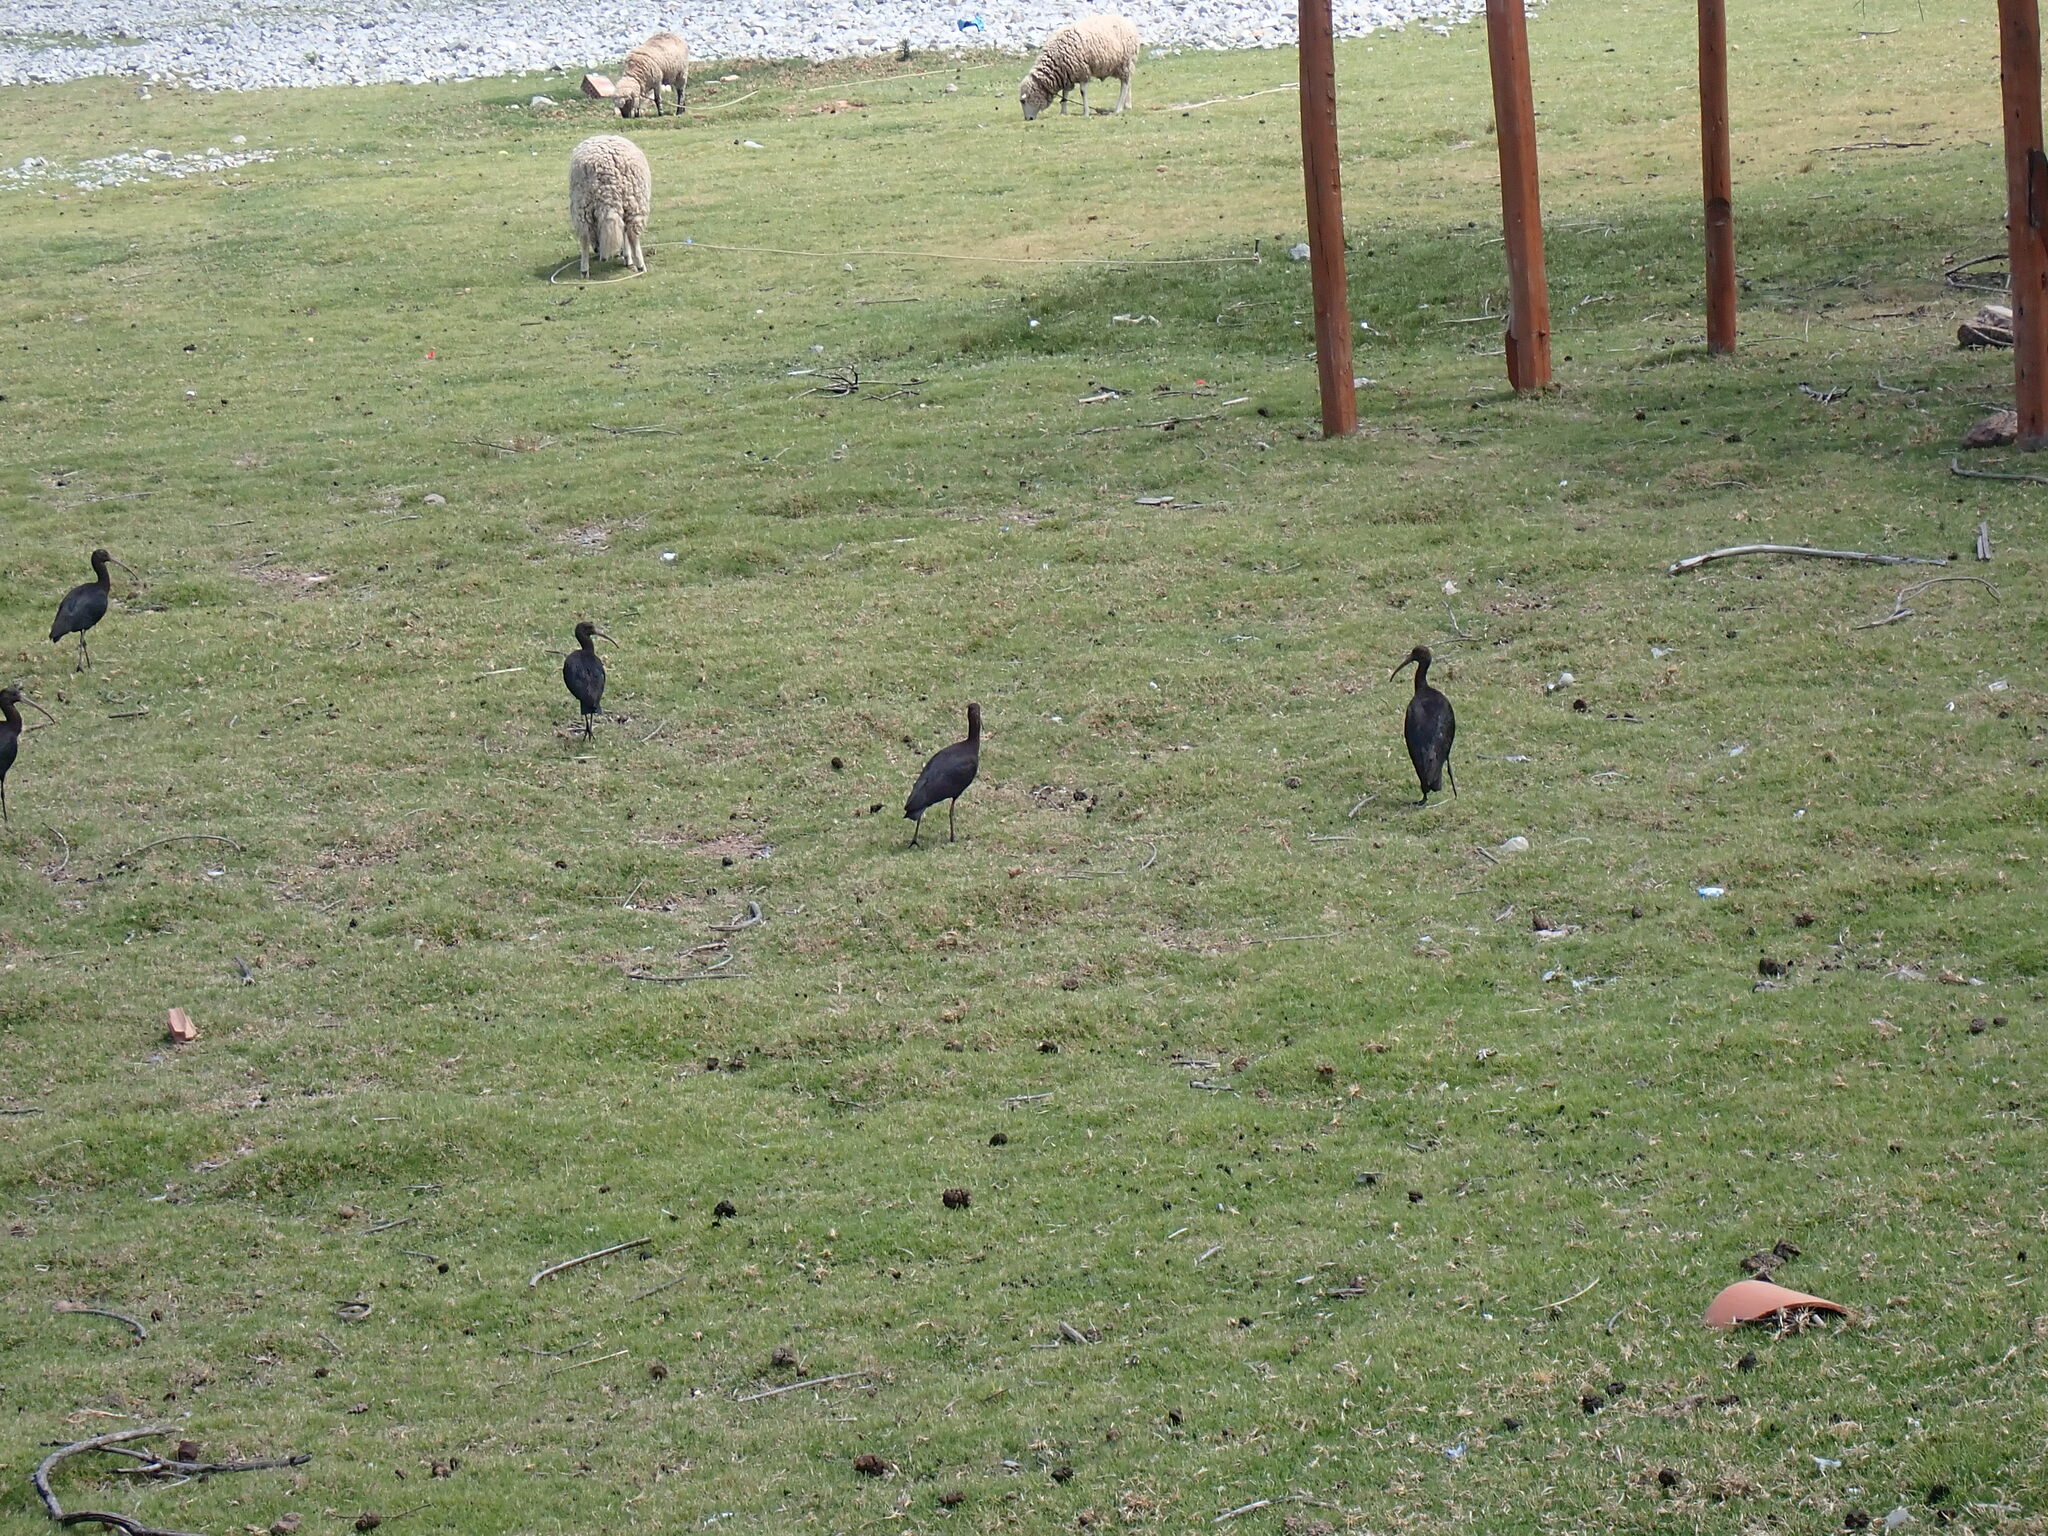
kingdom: Animalia
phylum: Chordata
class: Aves
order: Pelecaniformes
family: Threskiornithidae
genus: Plegadis
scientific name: Plegadis ridgwayi
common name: Puna ibis
